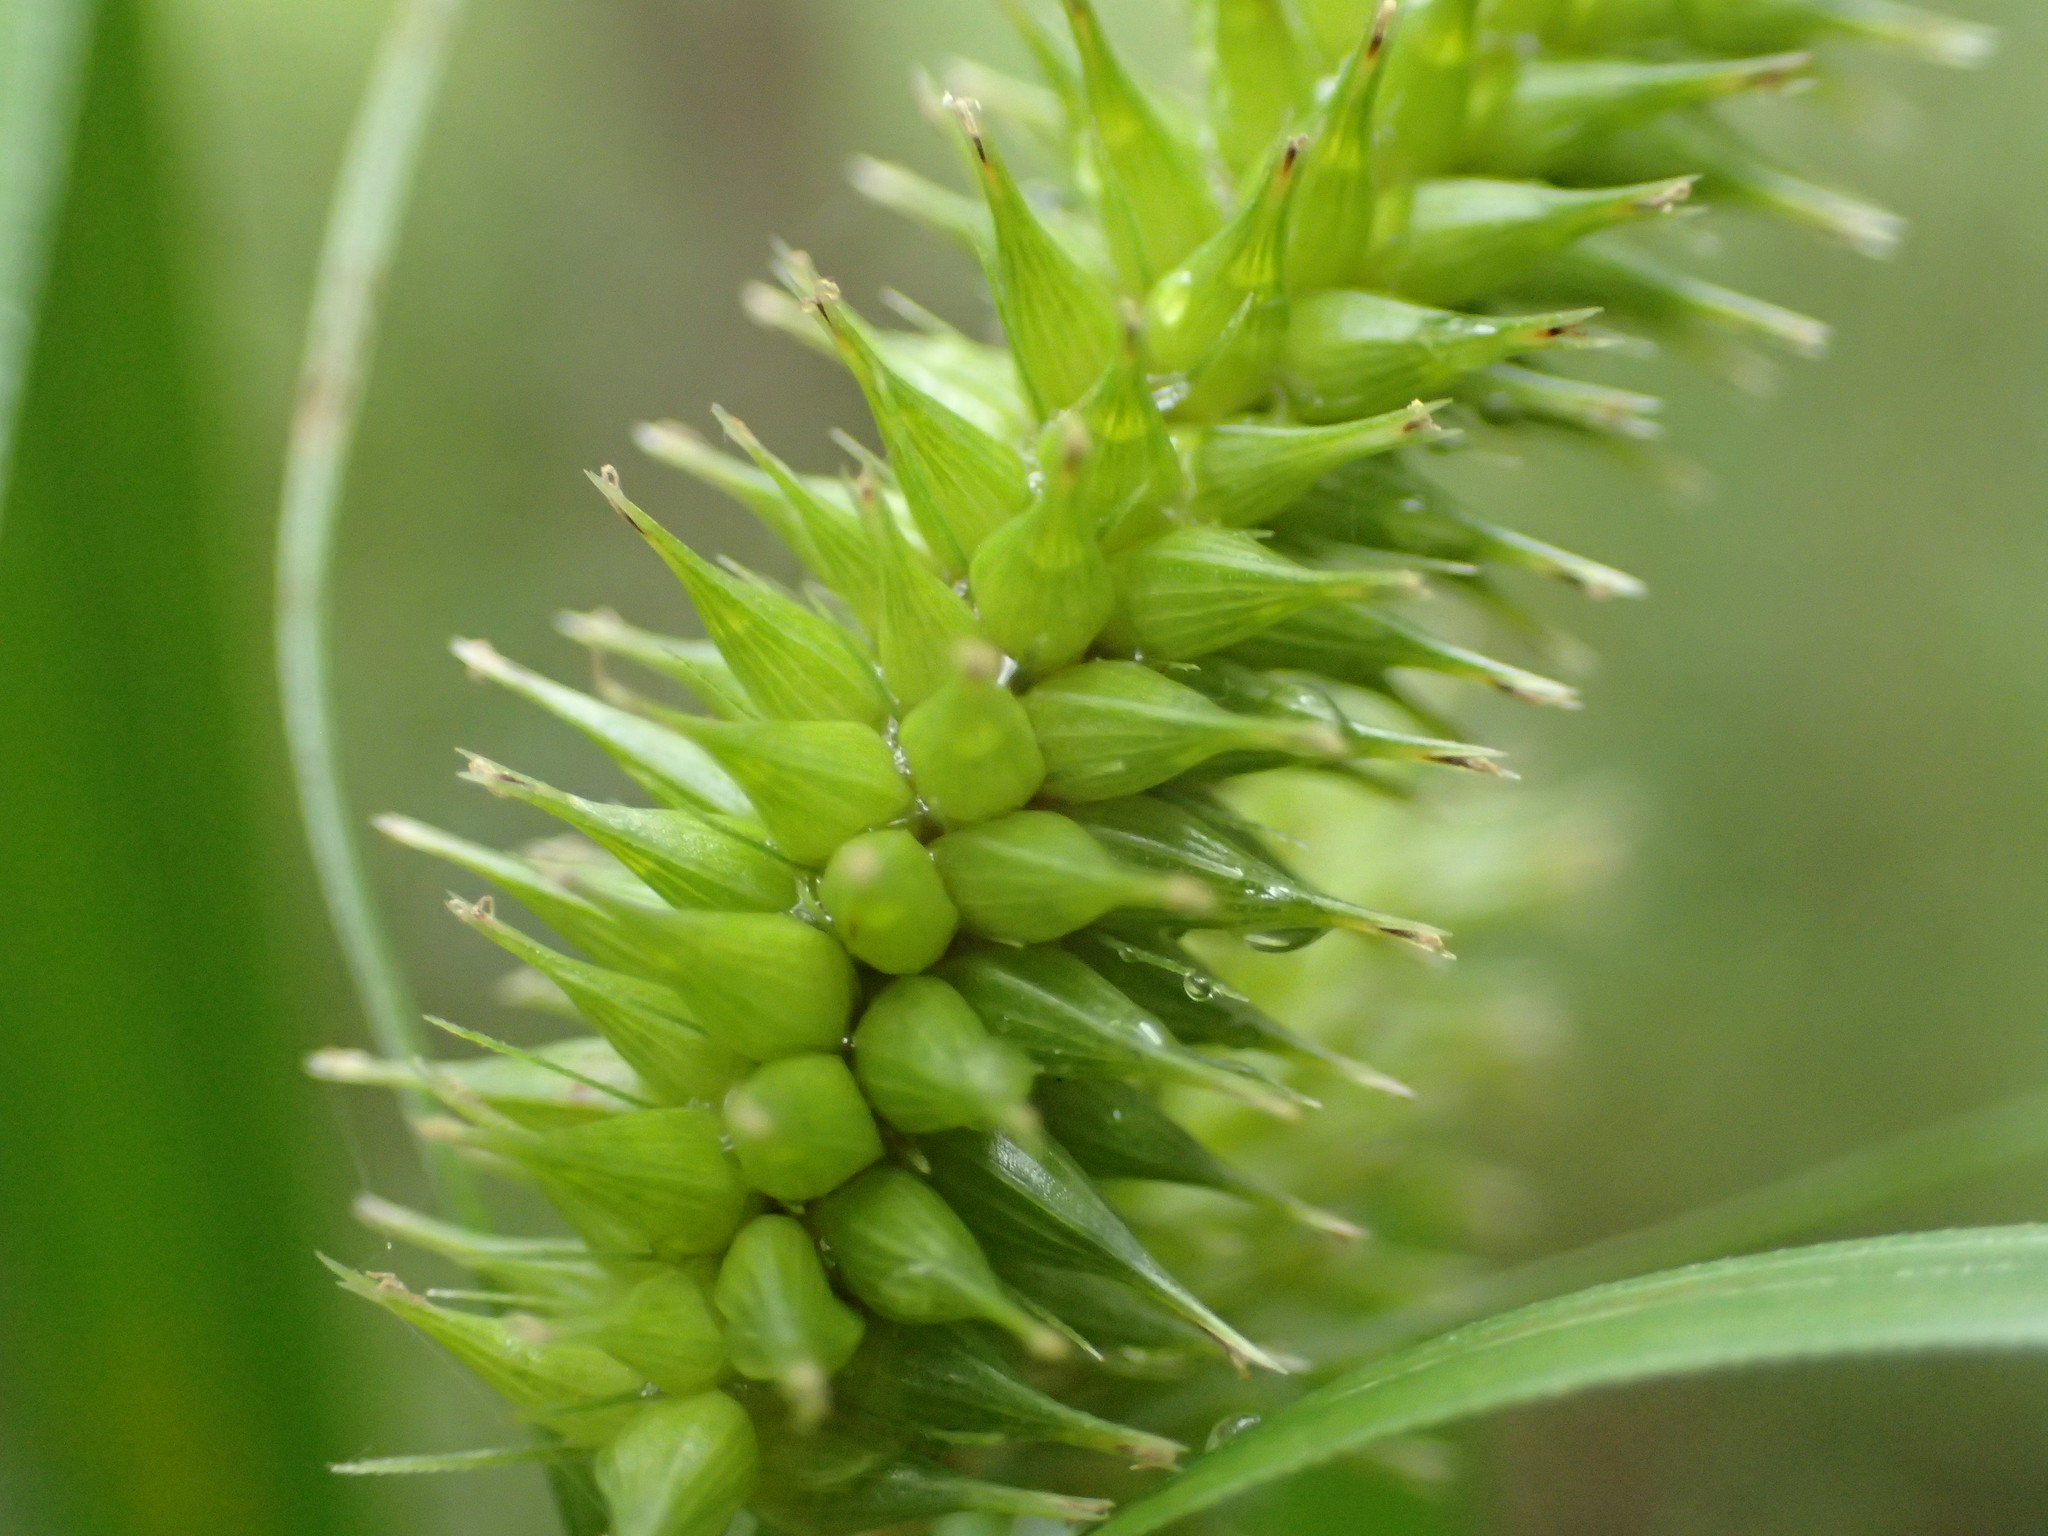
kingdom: Plantae
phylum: Tracheophyta
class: Liliopsida
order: Poales
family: Cyperaceae
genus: Carex
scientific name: Carex hystericina
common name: Bottlebrush sedge
